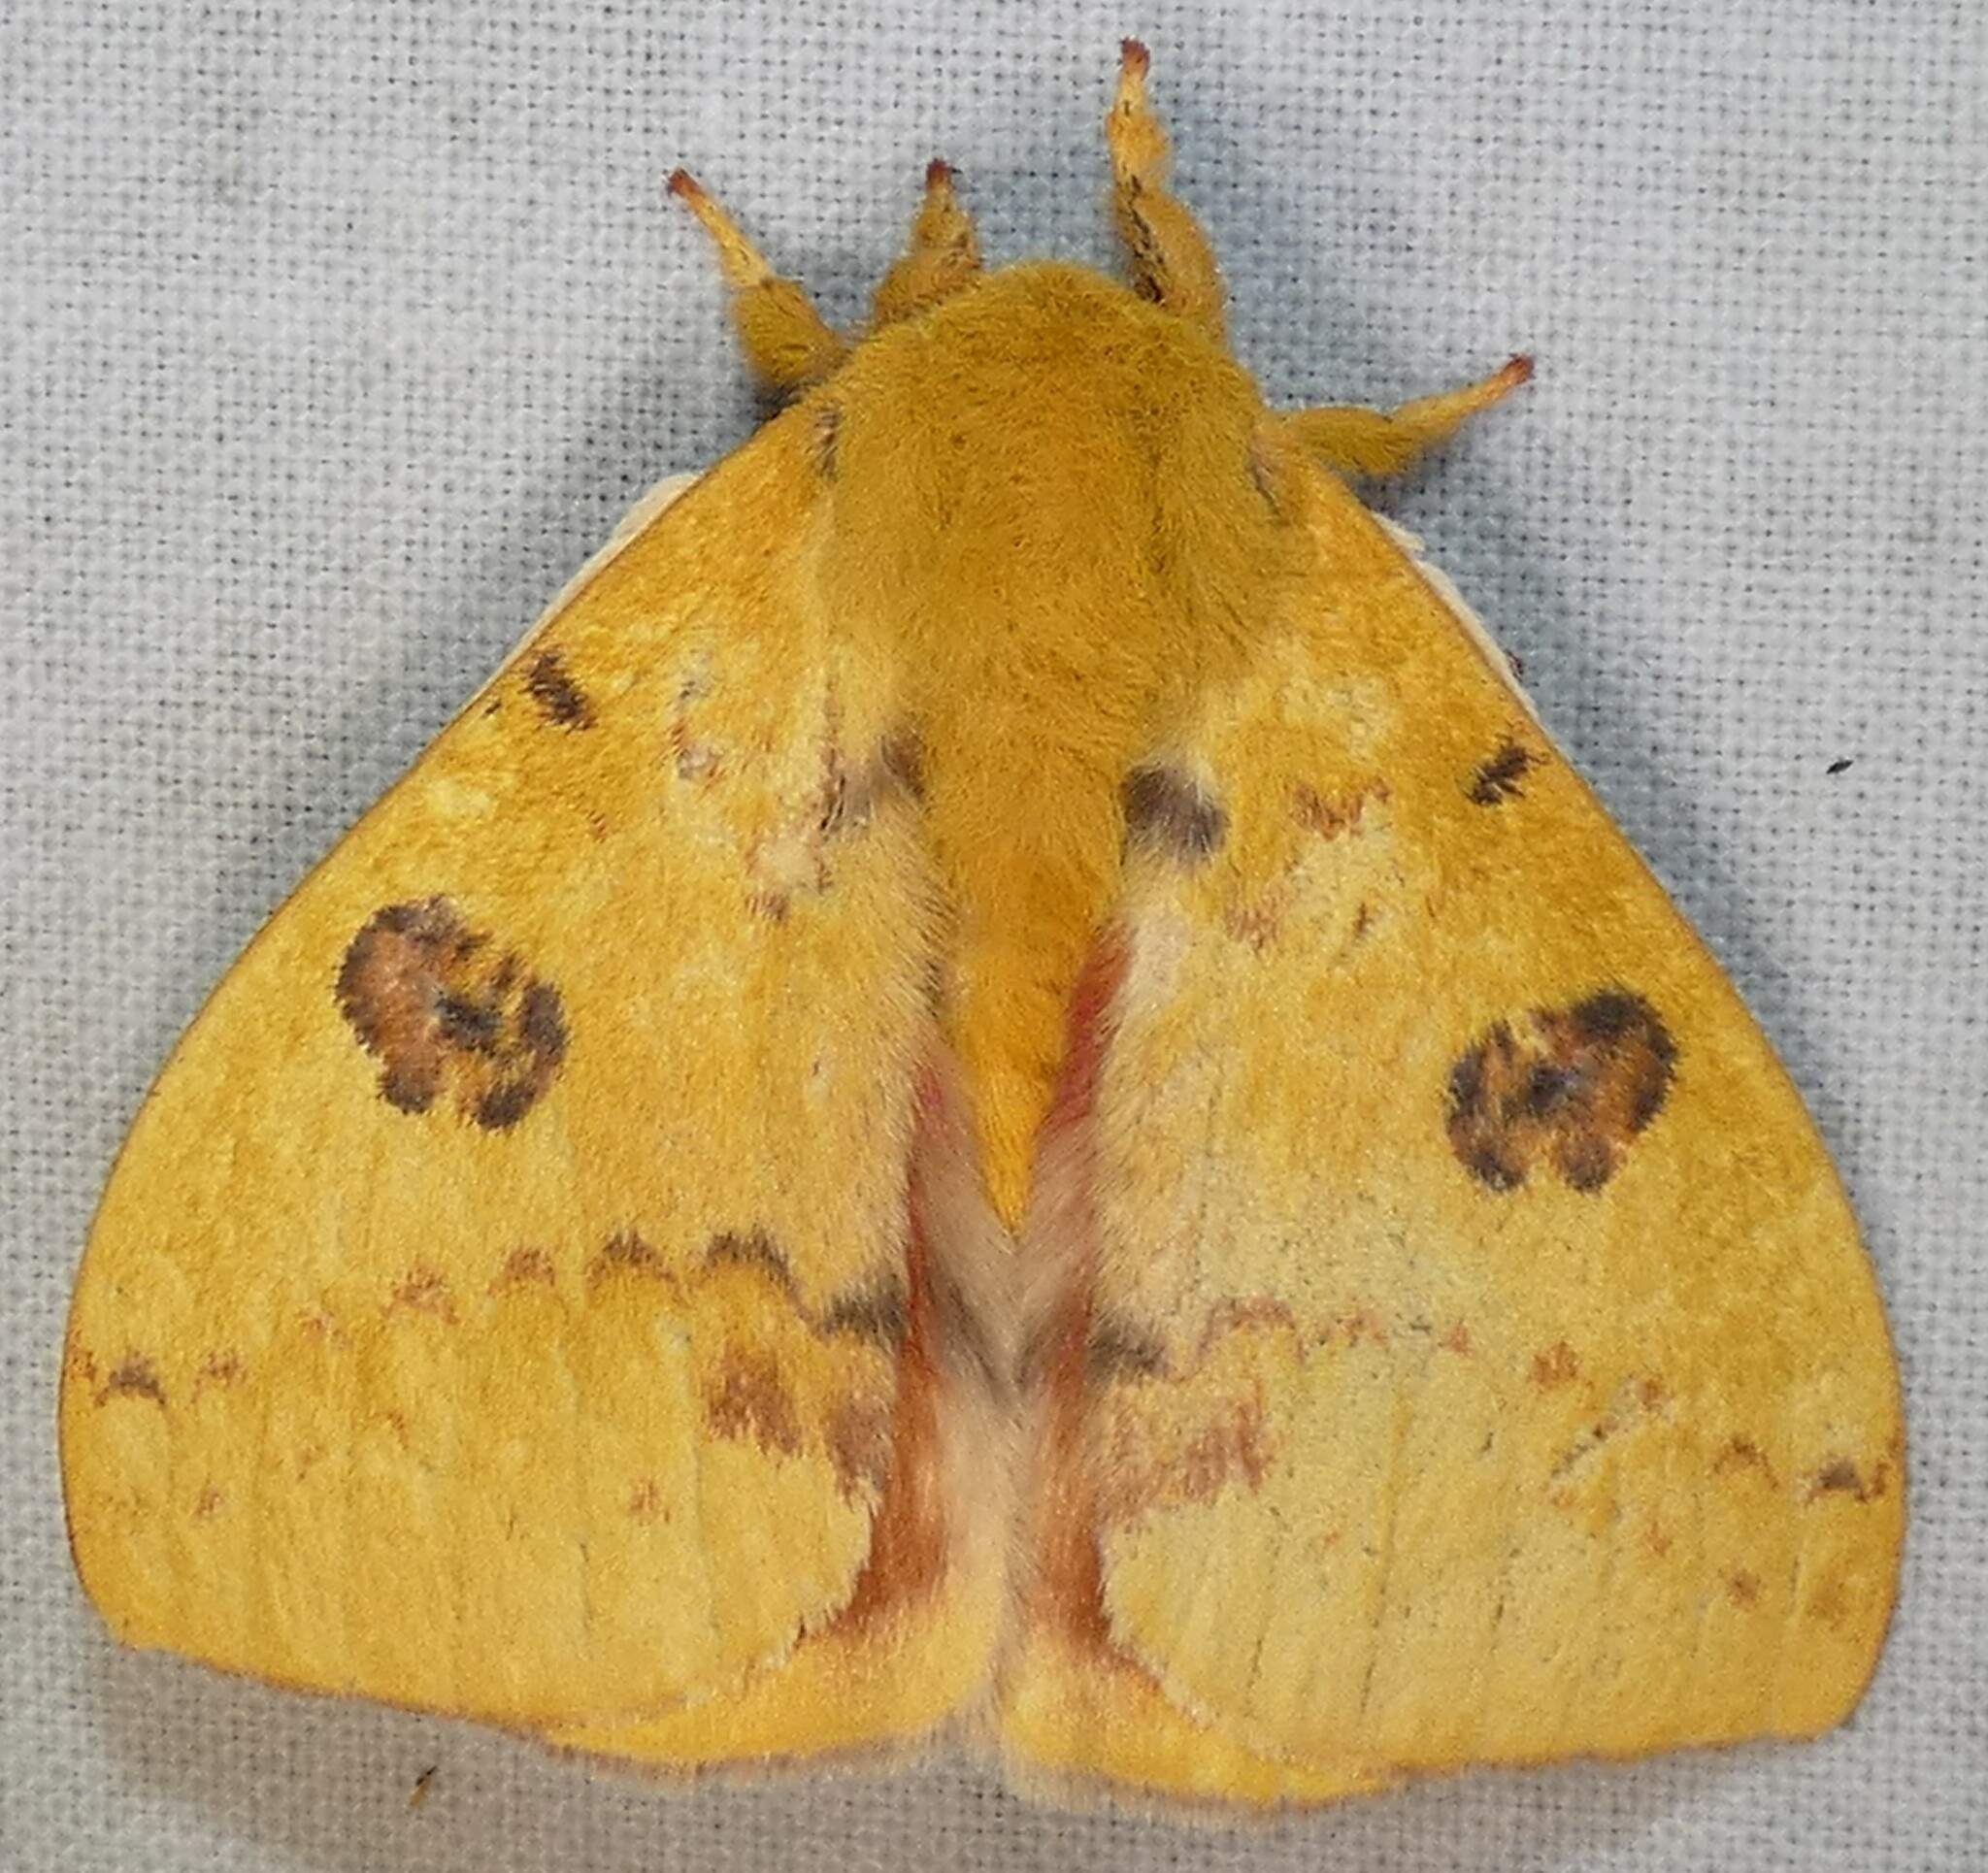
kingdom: Animalia
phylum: Arthropoda
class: Insecta
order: Lepidoptera
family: Saturniidae
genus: Automeris
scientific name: Automeris io
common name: Io moth
